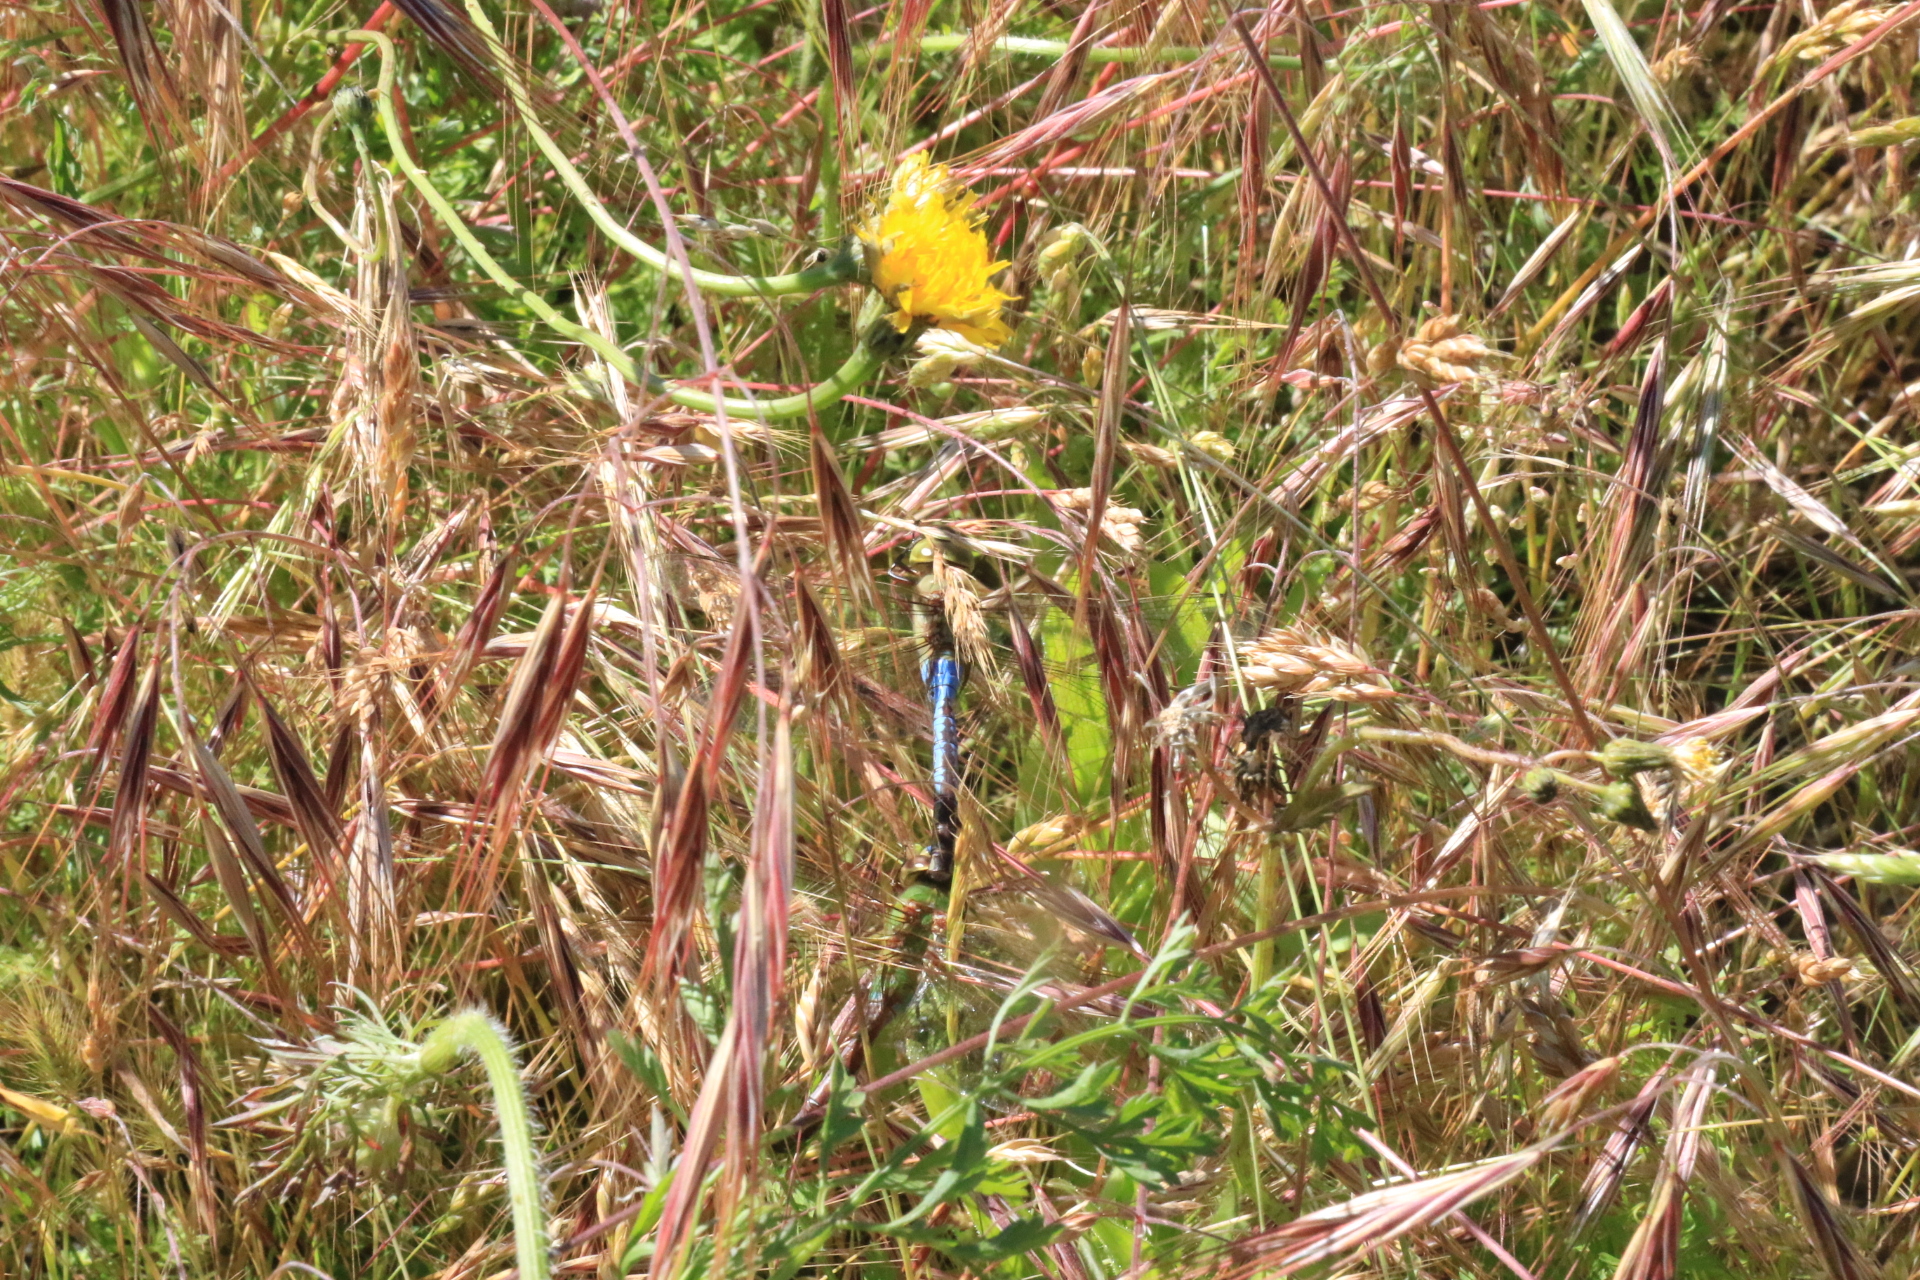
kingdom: Animalia
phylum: Arthropoda
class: Insecta
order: Odonata
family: Aeshnidae
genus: Anax
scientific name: Anax junius
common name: Common green darner
